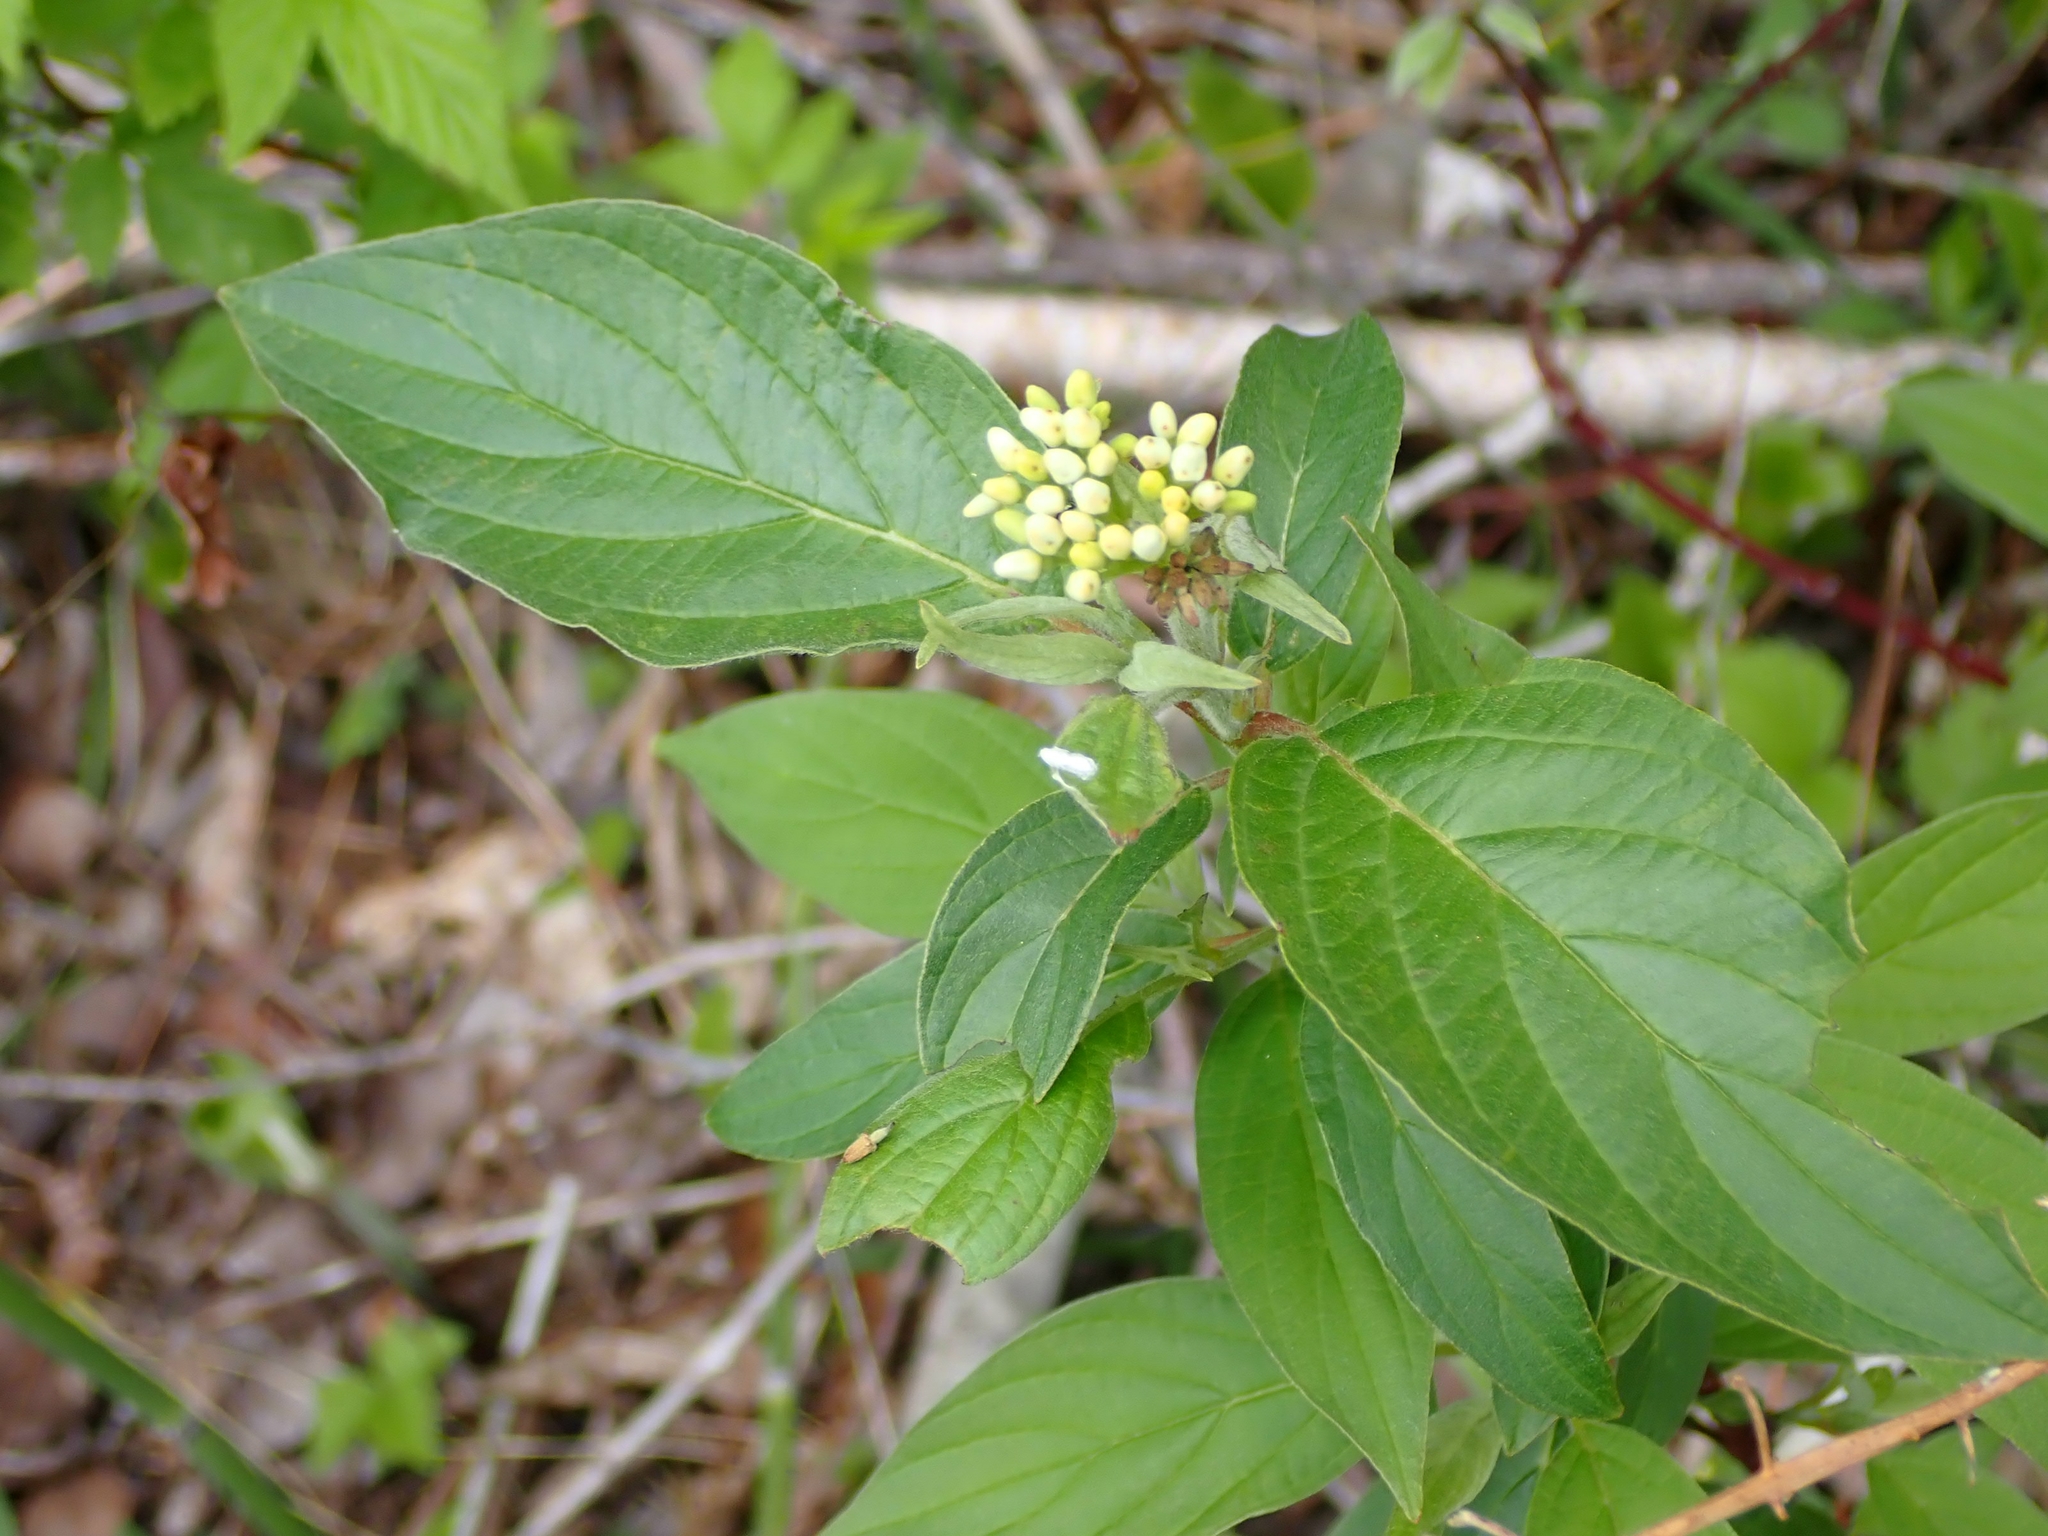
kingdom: Plantae
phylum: Tracheophyta
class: Magnoliopsida
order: Cornales
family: Cornaceae
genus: Cornus
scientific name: Cornus sericea
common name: Red-osier dogwood
